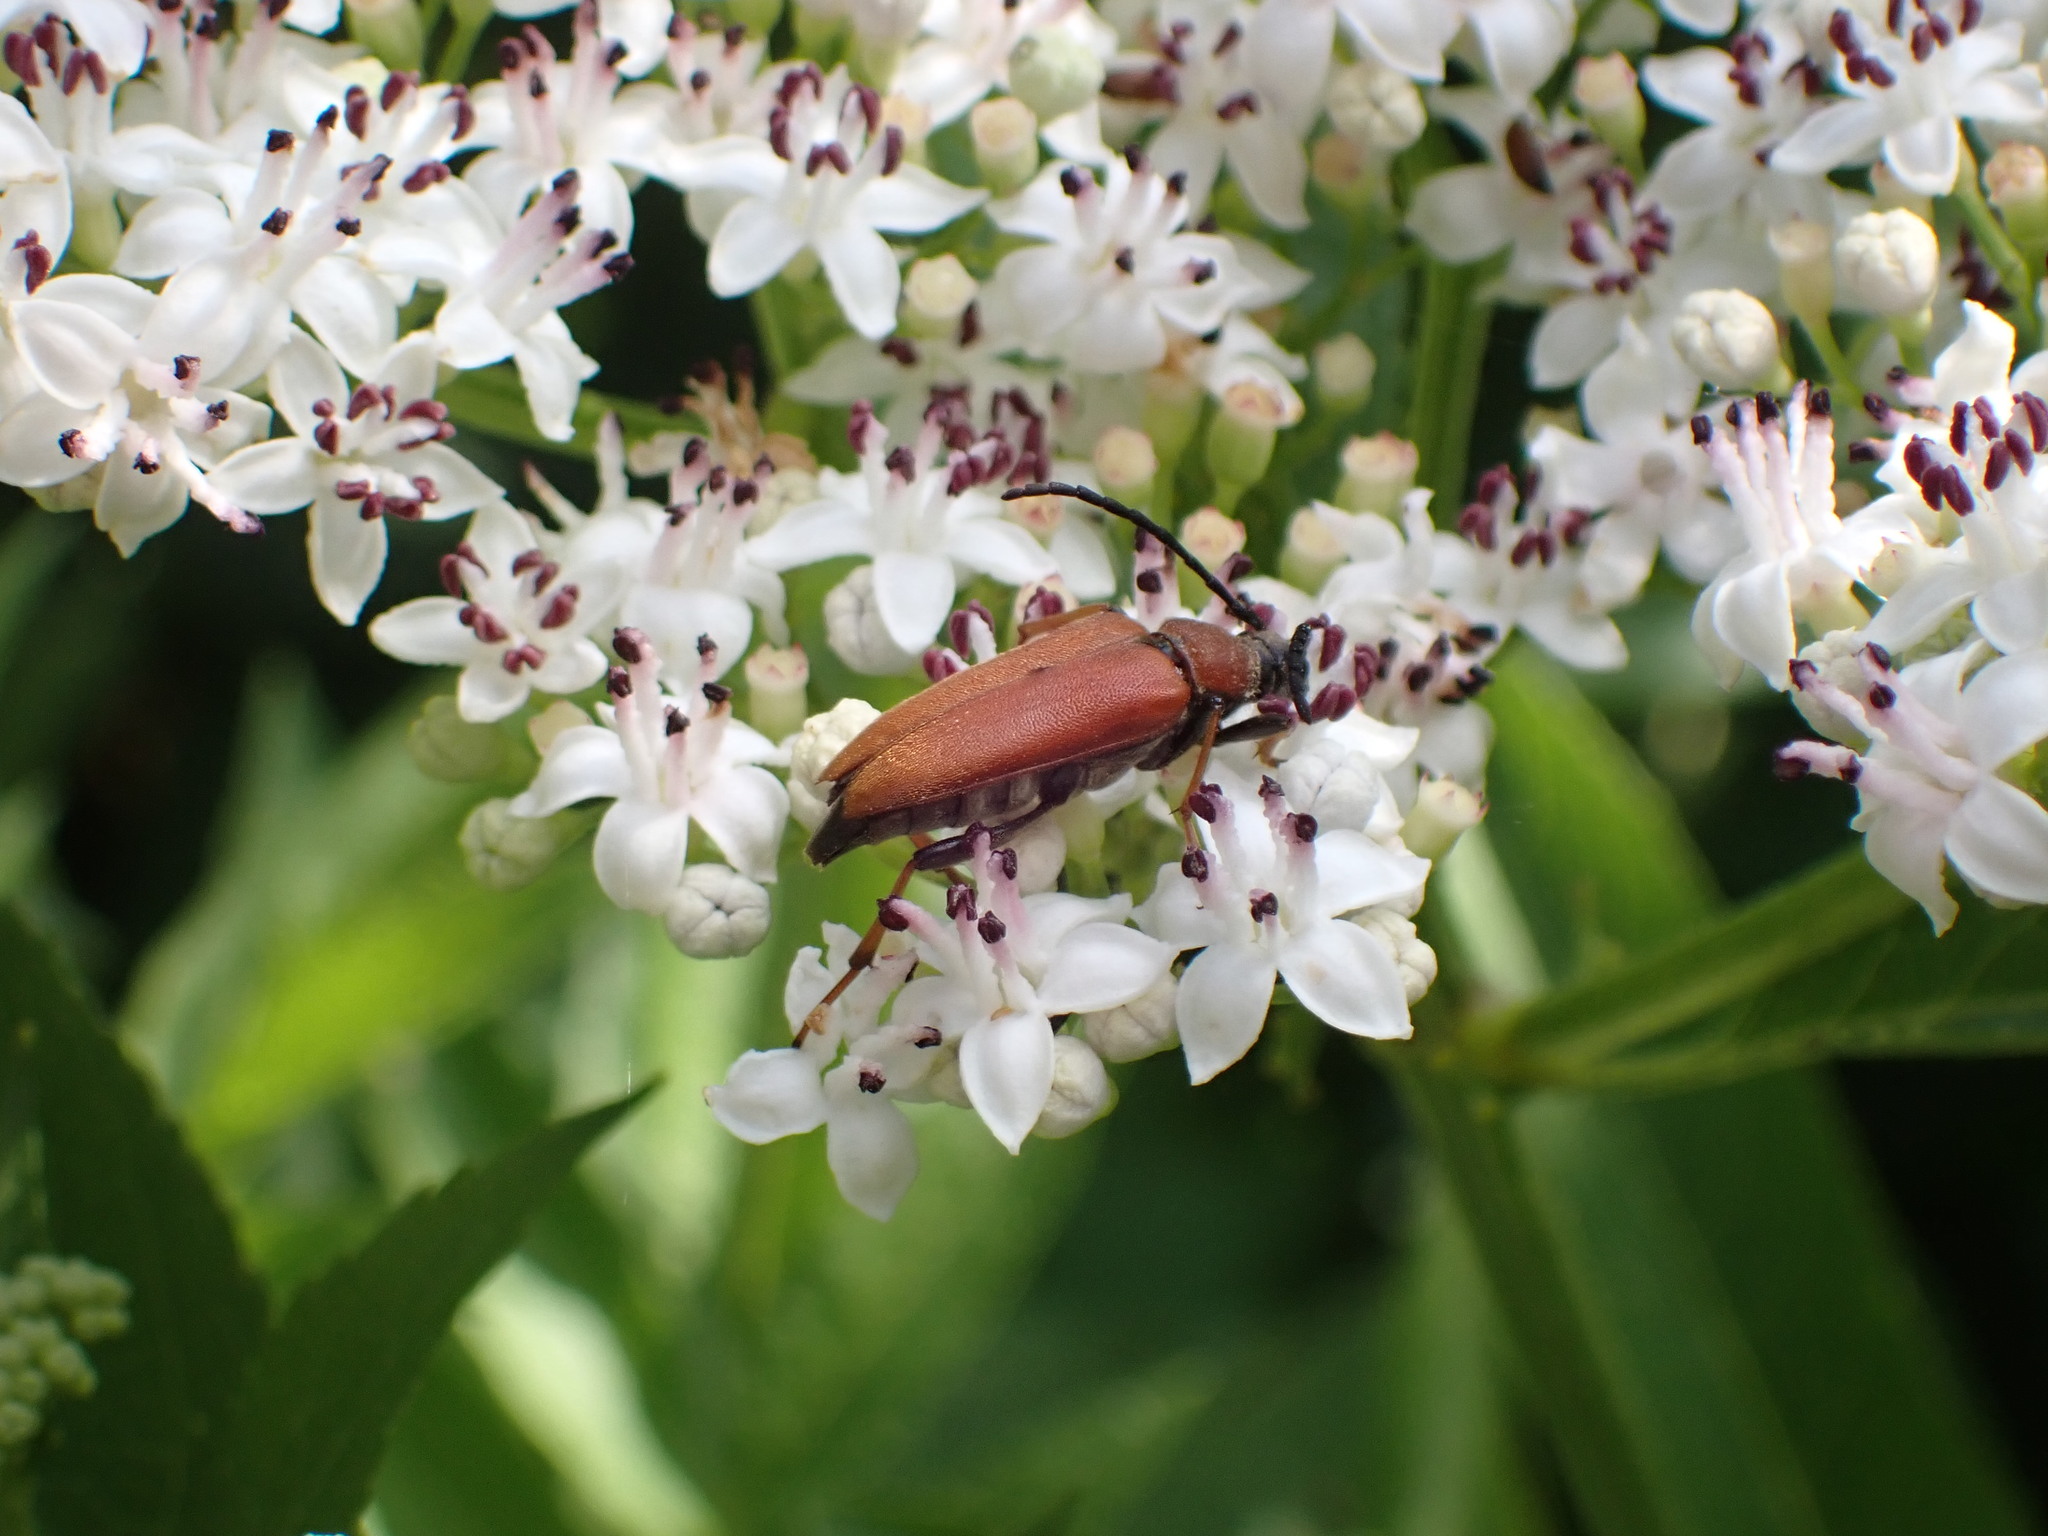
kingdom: Animalia
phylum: Arthropoda
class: Insecta
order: Coleoptera
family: Cerambycidae
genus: Stictoleptura
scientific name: Stictoleptura rubra
